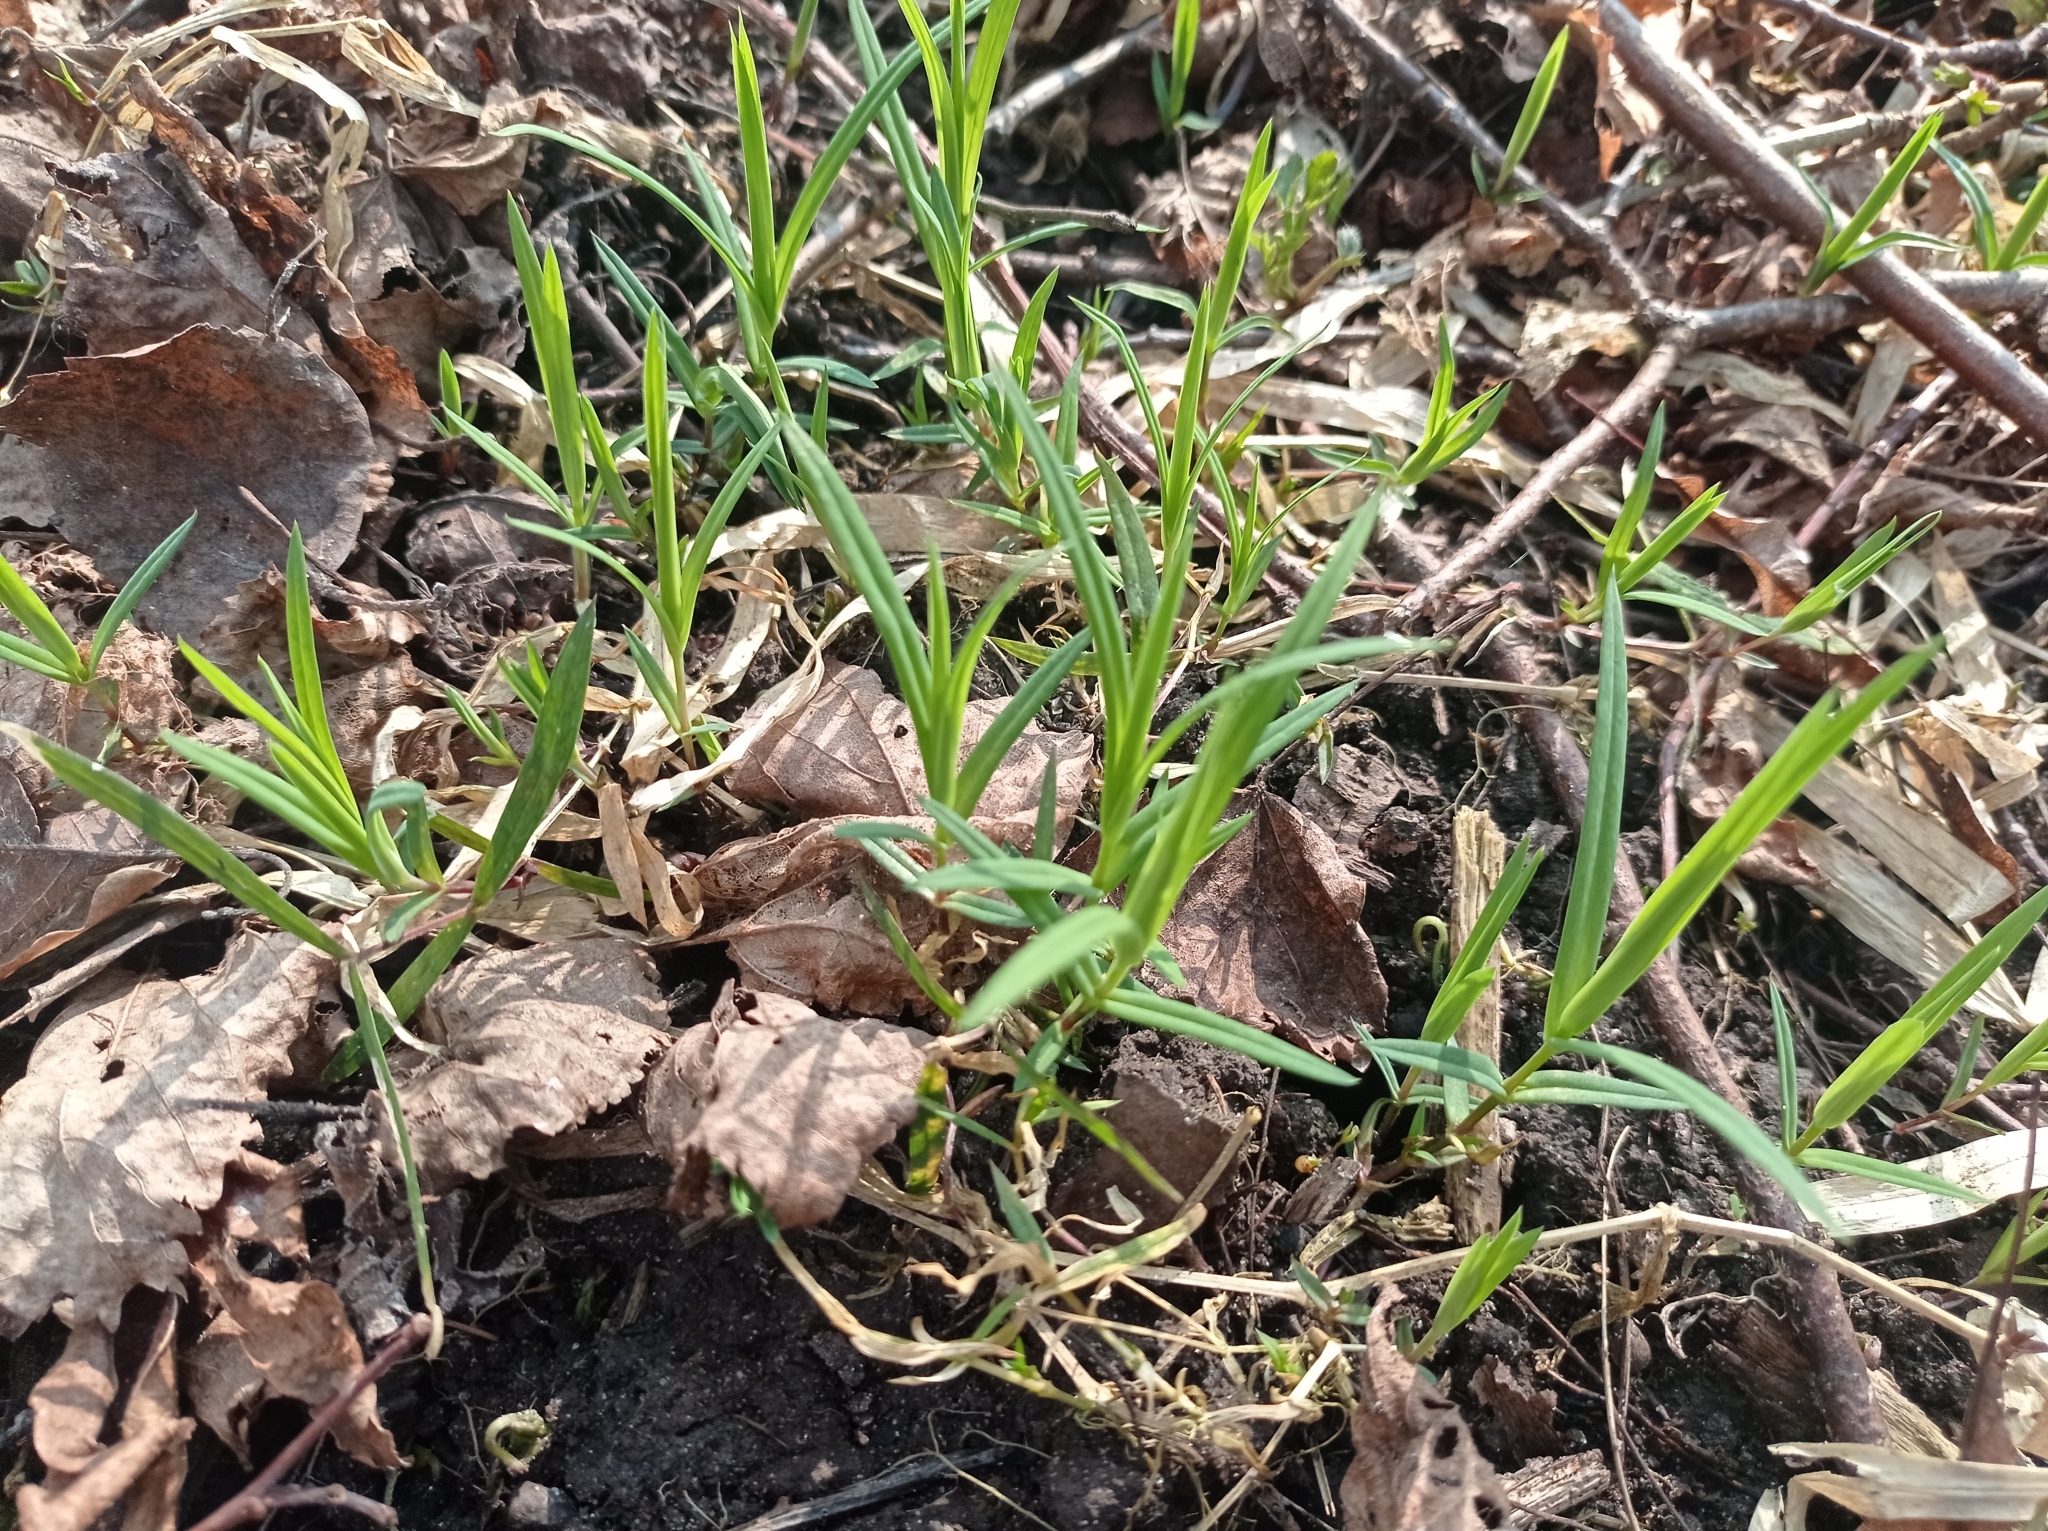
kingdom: Plantae
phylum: Tracheophyta
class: Magnoliopsida
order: Caryophyllales
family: Caryophyllaceae
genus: Rabelera
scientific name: Rabelera holostea
